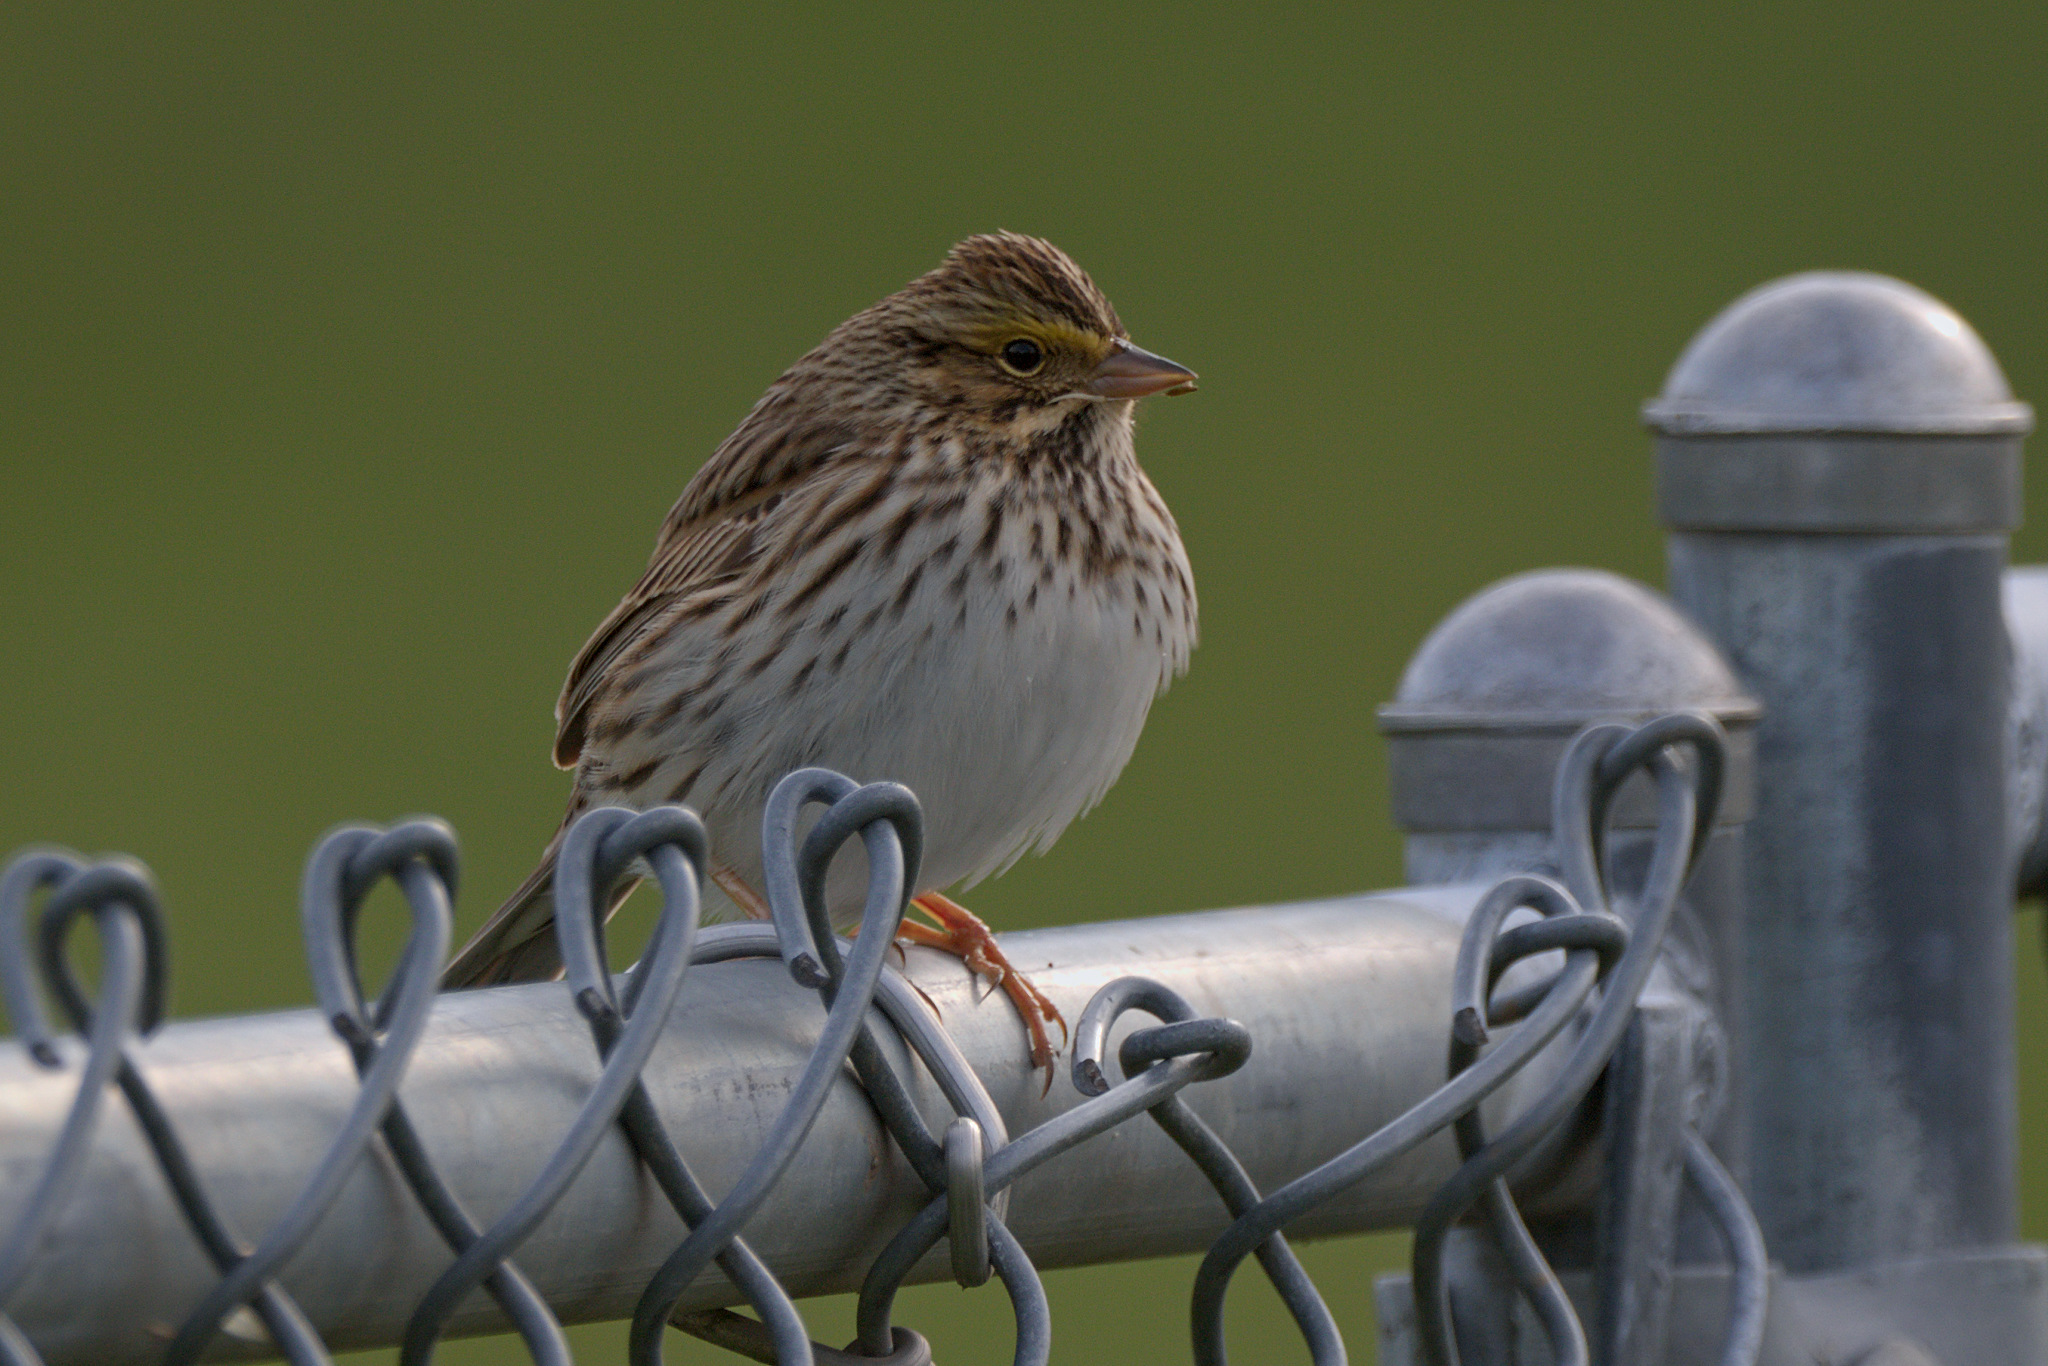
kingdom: Animalia
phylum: Chordata
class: Aves
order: Passeriformes
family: Passerellidae
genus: Passerculus
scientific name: Passerculus sandwichensis
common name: Savannah sparrow
